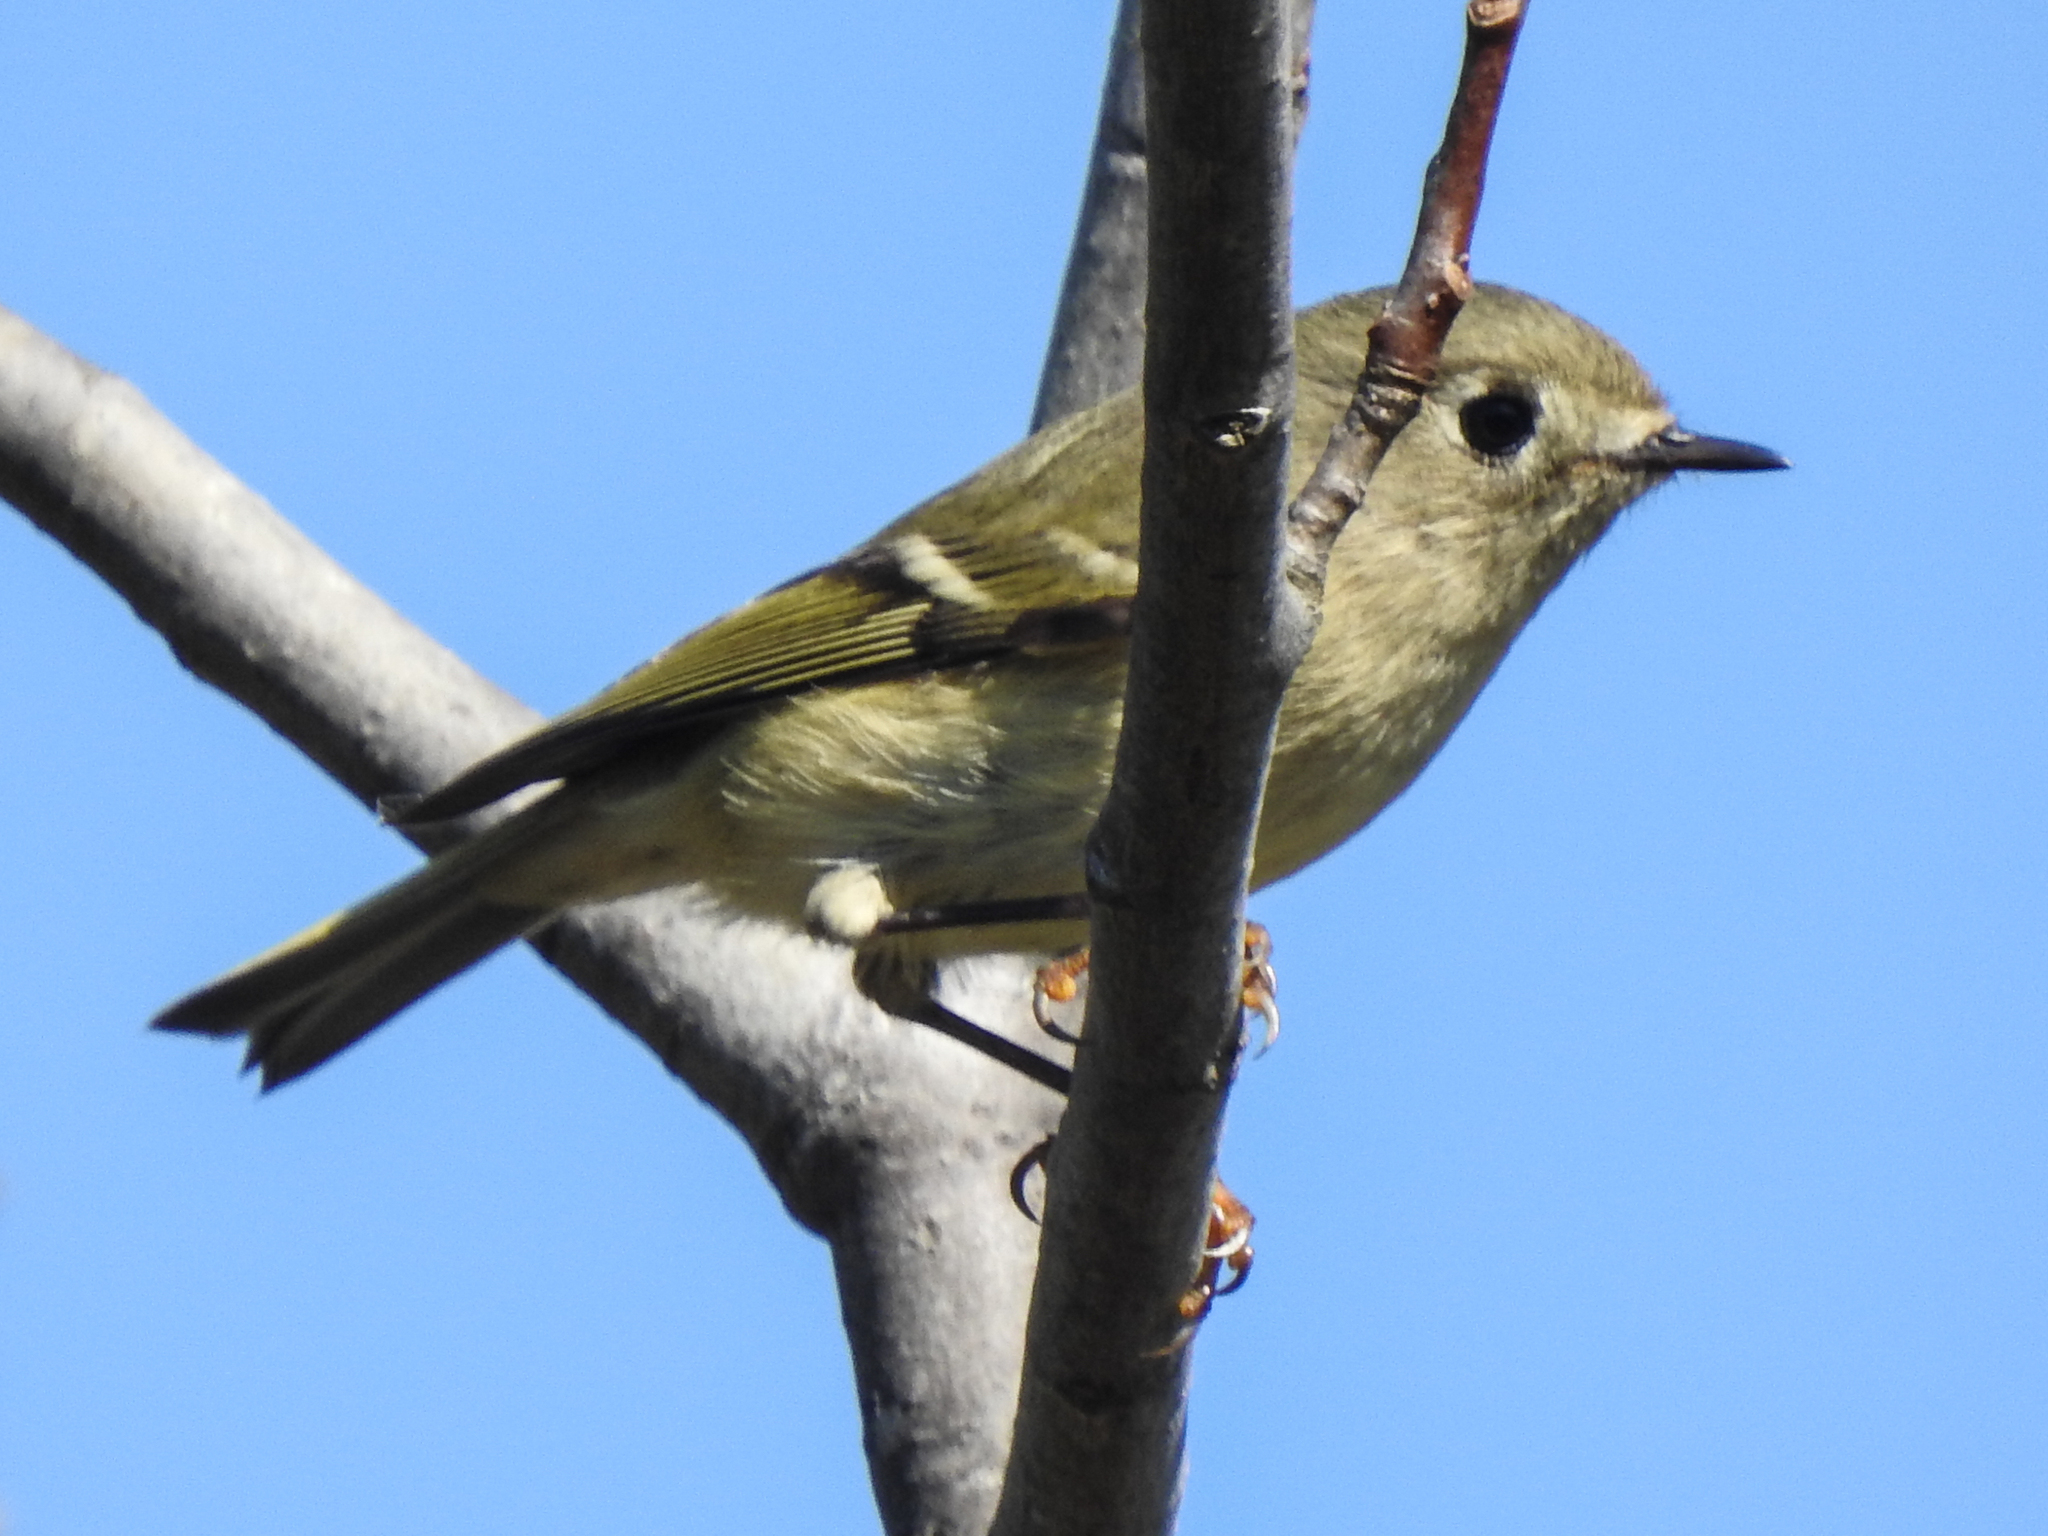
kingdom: Animalia
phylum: Chordata
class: Aves
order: Passeriformes
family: Regulidae
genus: Regulus
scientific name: Regulus calendula
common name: Ruby-crowned kinglet
